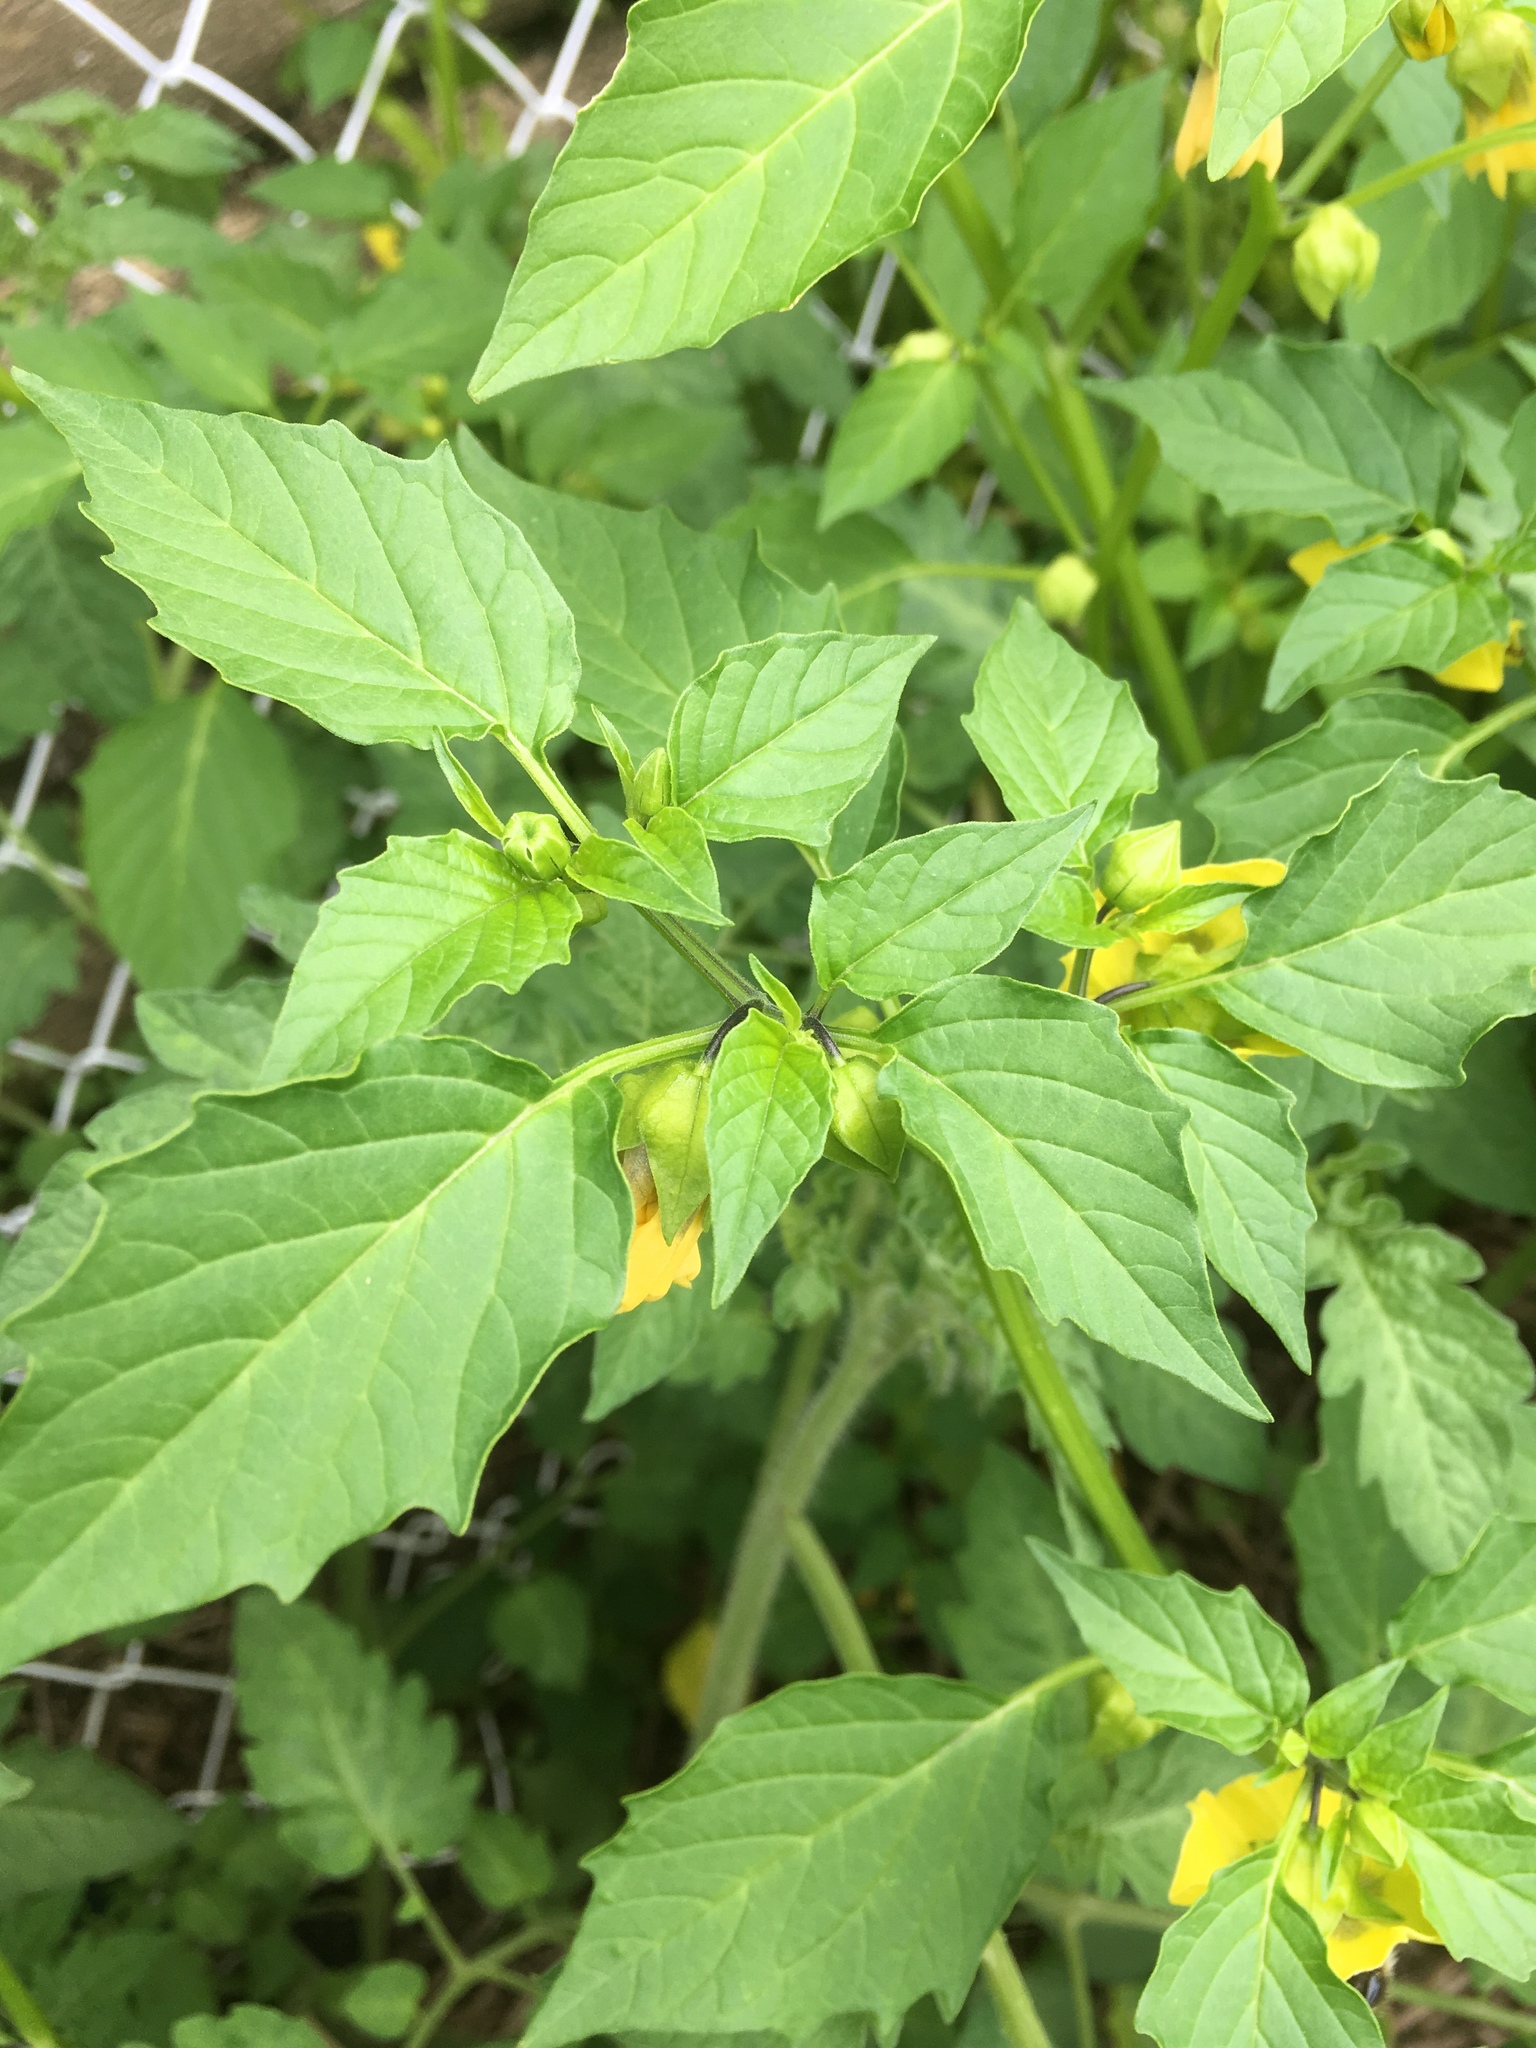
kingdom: Plantae
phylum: Tracheophyta
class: Magnoliopsida
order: Solanales
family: Solanaceae
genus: Physalis
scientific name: Physalis philadelphica
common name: Husk-tomato
